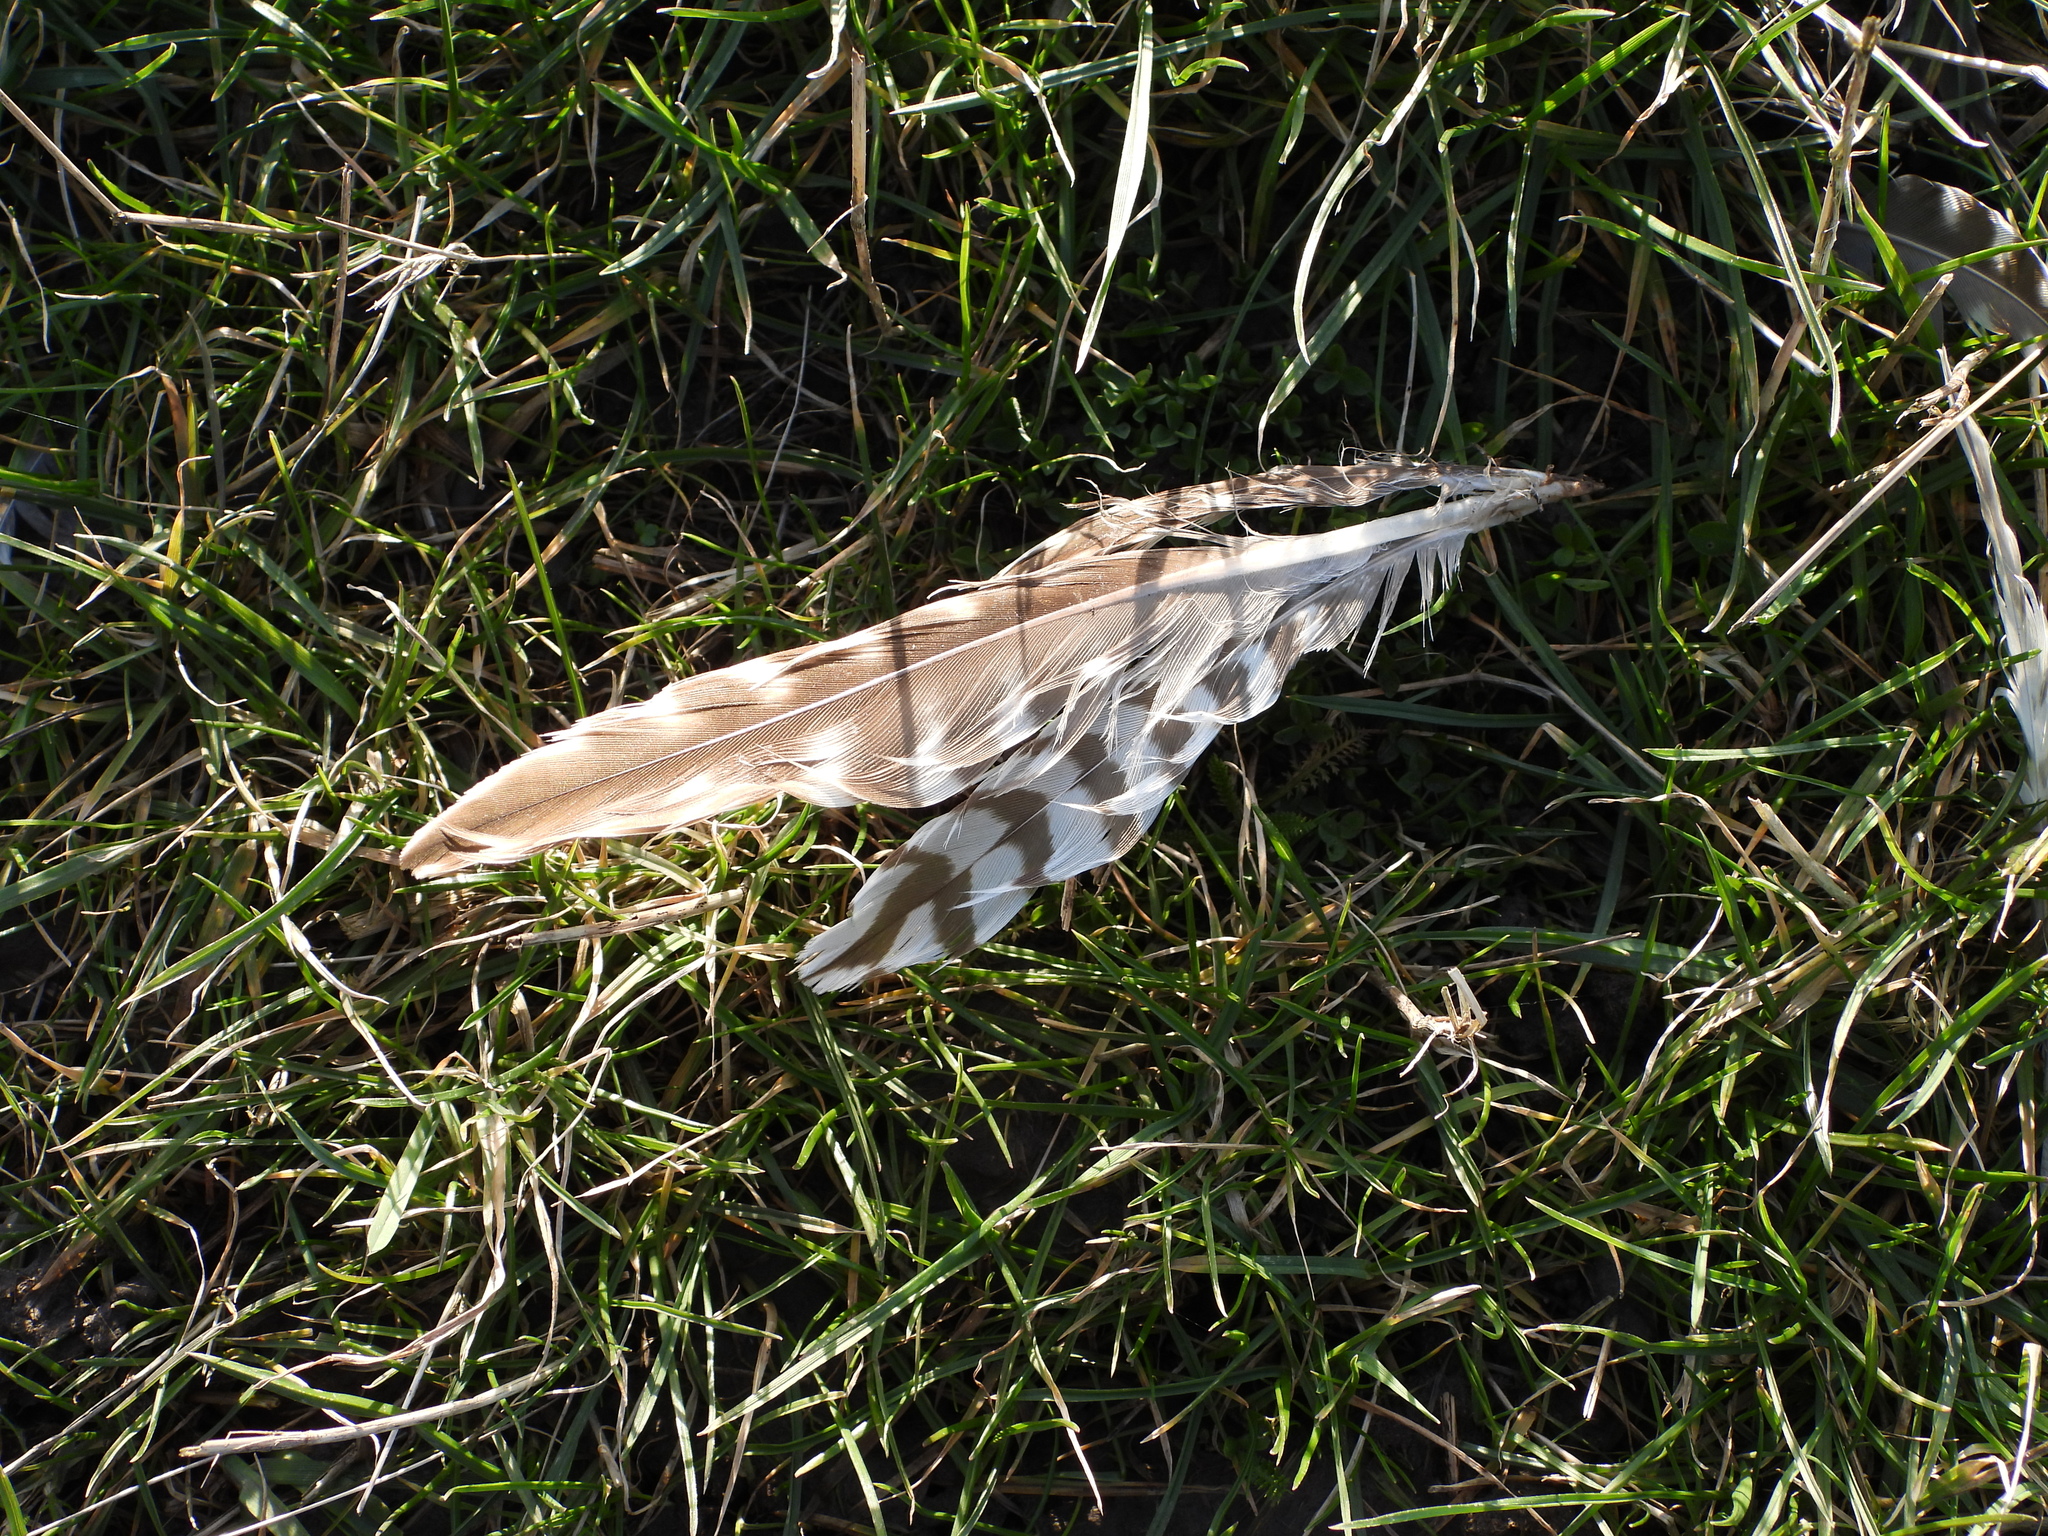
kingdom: Animalia
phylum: Chordata
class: Aves
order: Charadriiformes
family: Scolopacidae
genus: Numenius
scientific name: Numenius arquata
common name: Eurasian curlew
